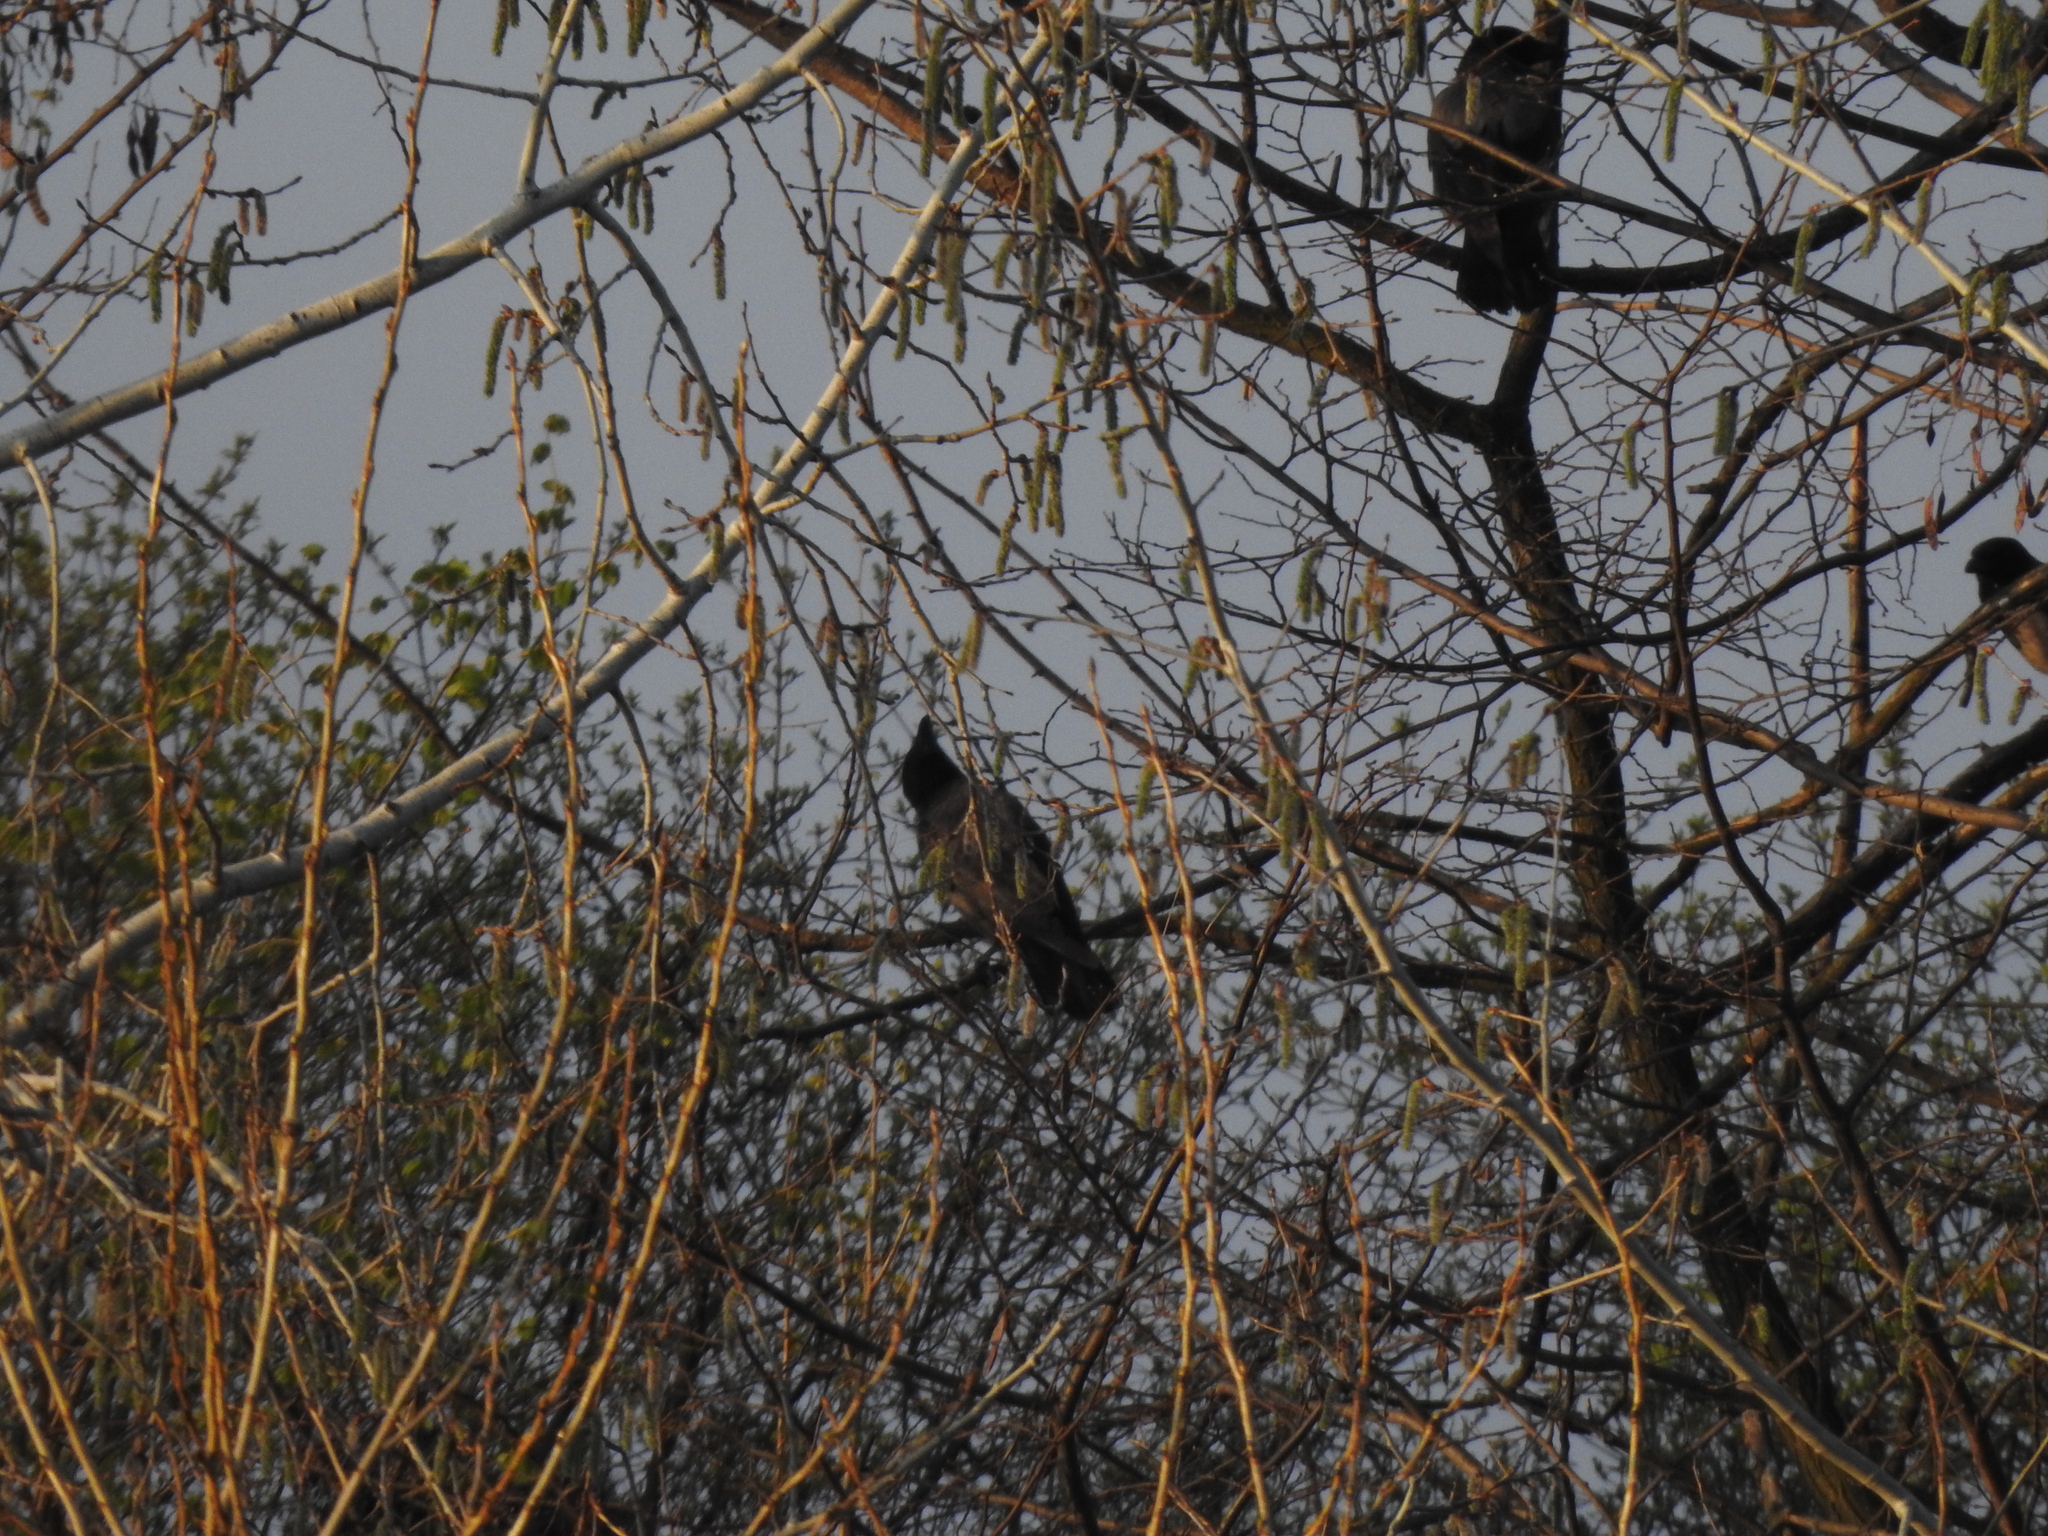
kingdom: Animalia
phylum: Chordata
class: Aves
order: Passeriformes
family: Corvidae
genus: Corvus
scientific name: Corvus cornix
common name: Hooded crow
